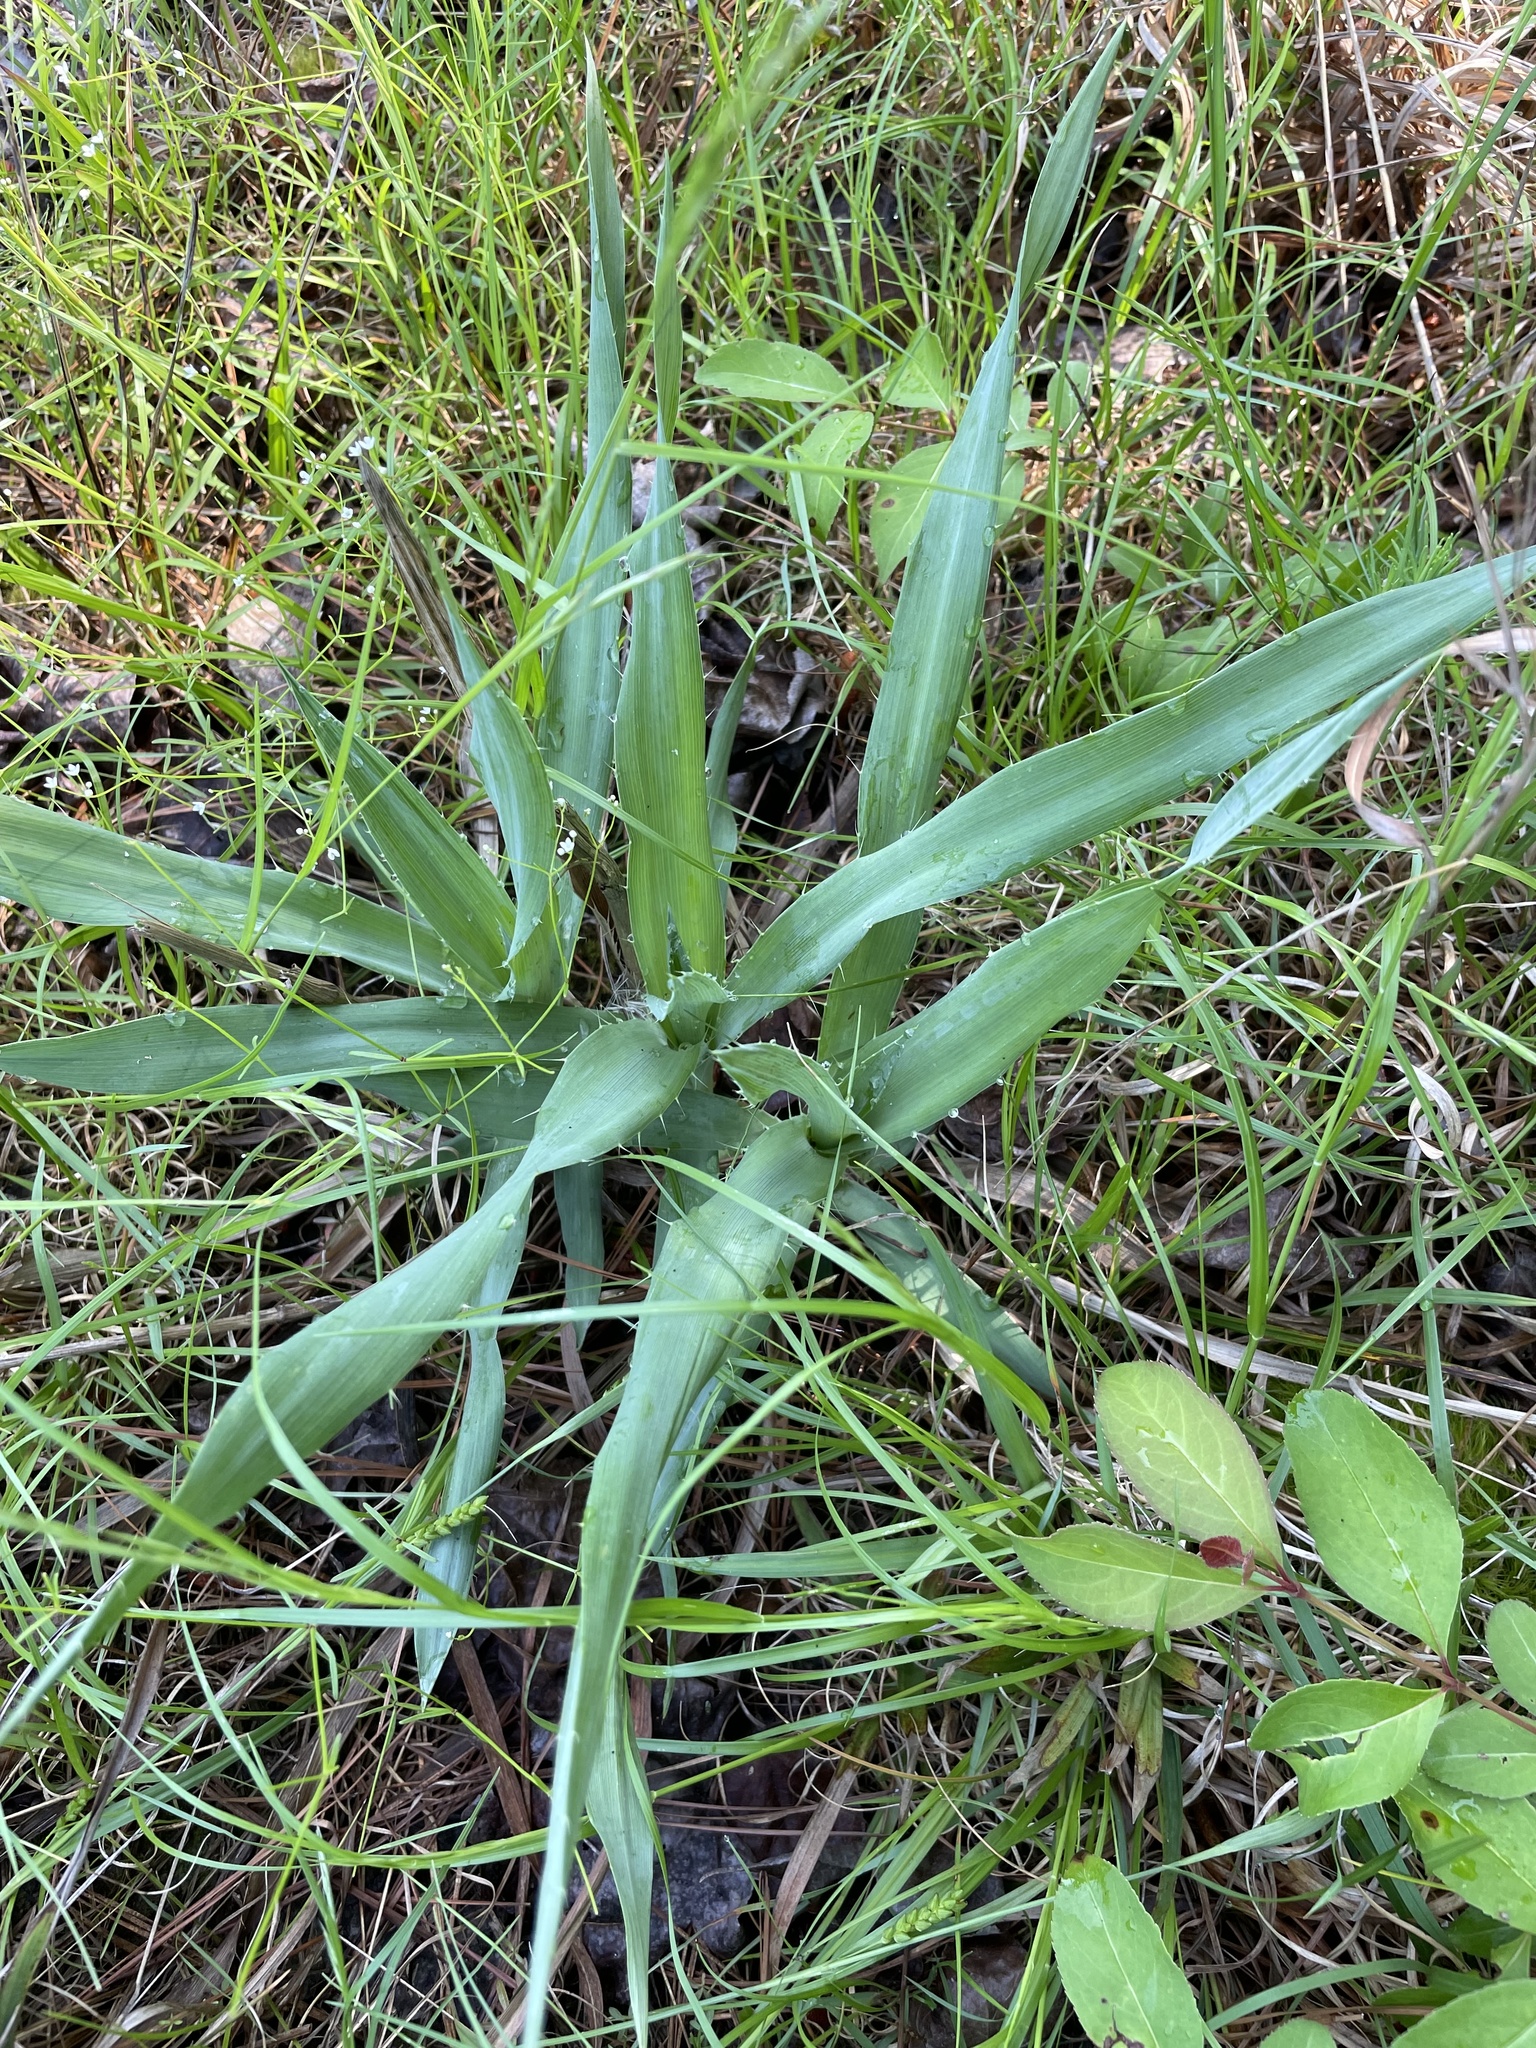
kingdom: Plantae
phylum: Tracheophyta
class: Magnoliopsida
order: Apiales
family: Apiaceae
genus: Eryngium
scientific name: Eryngium yuccifolium
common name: Button eryngo
